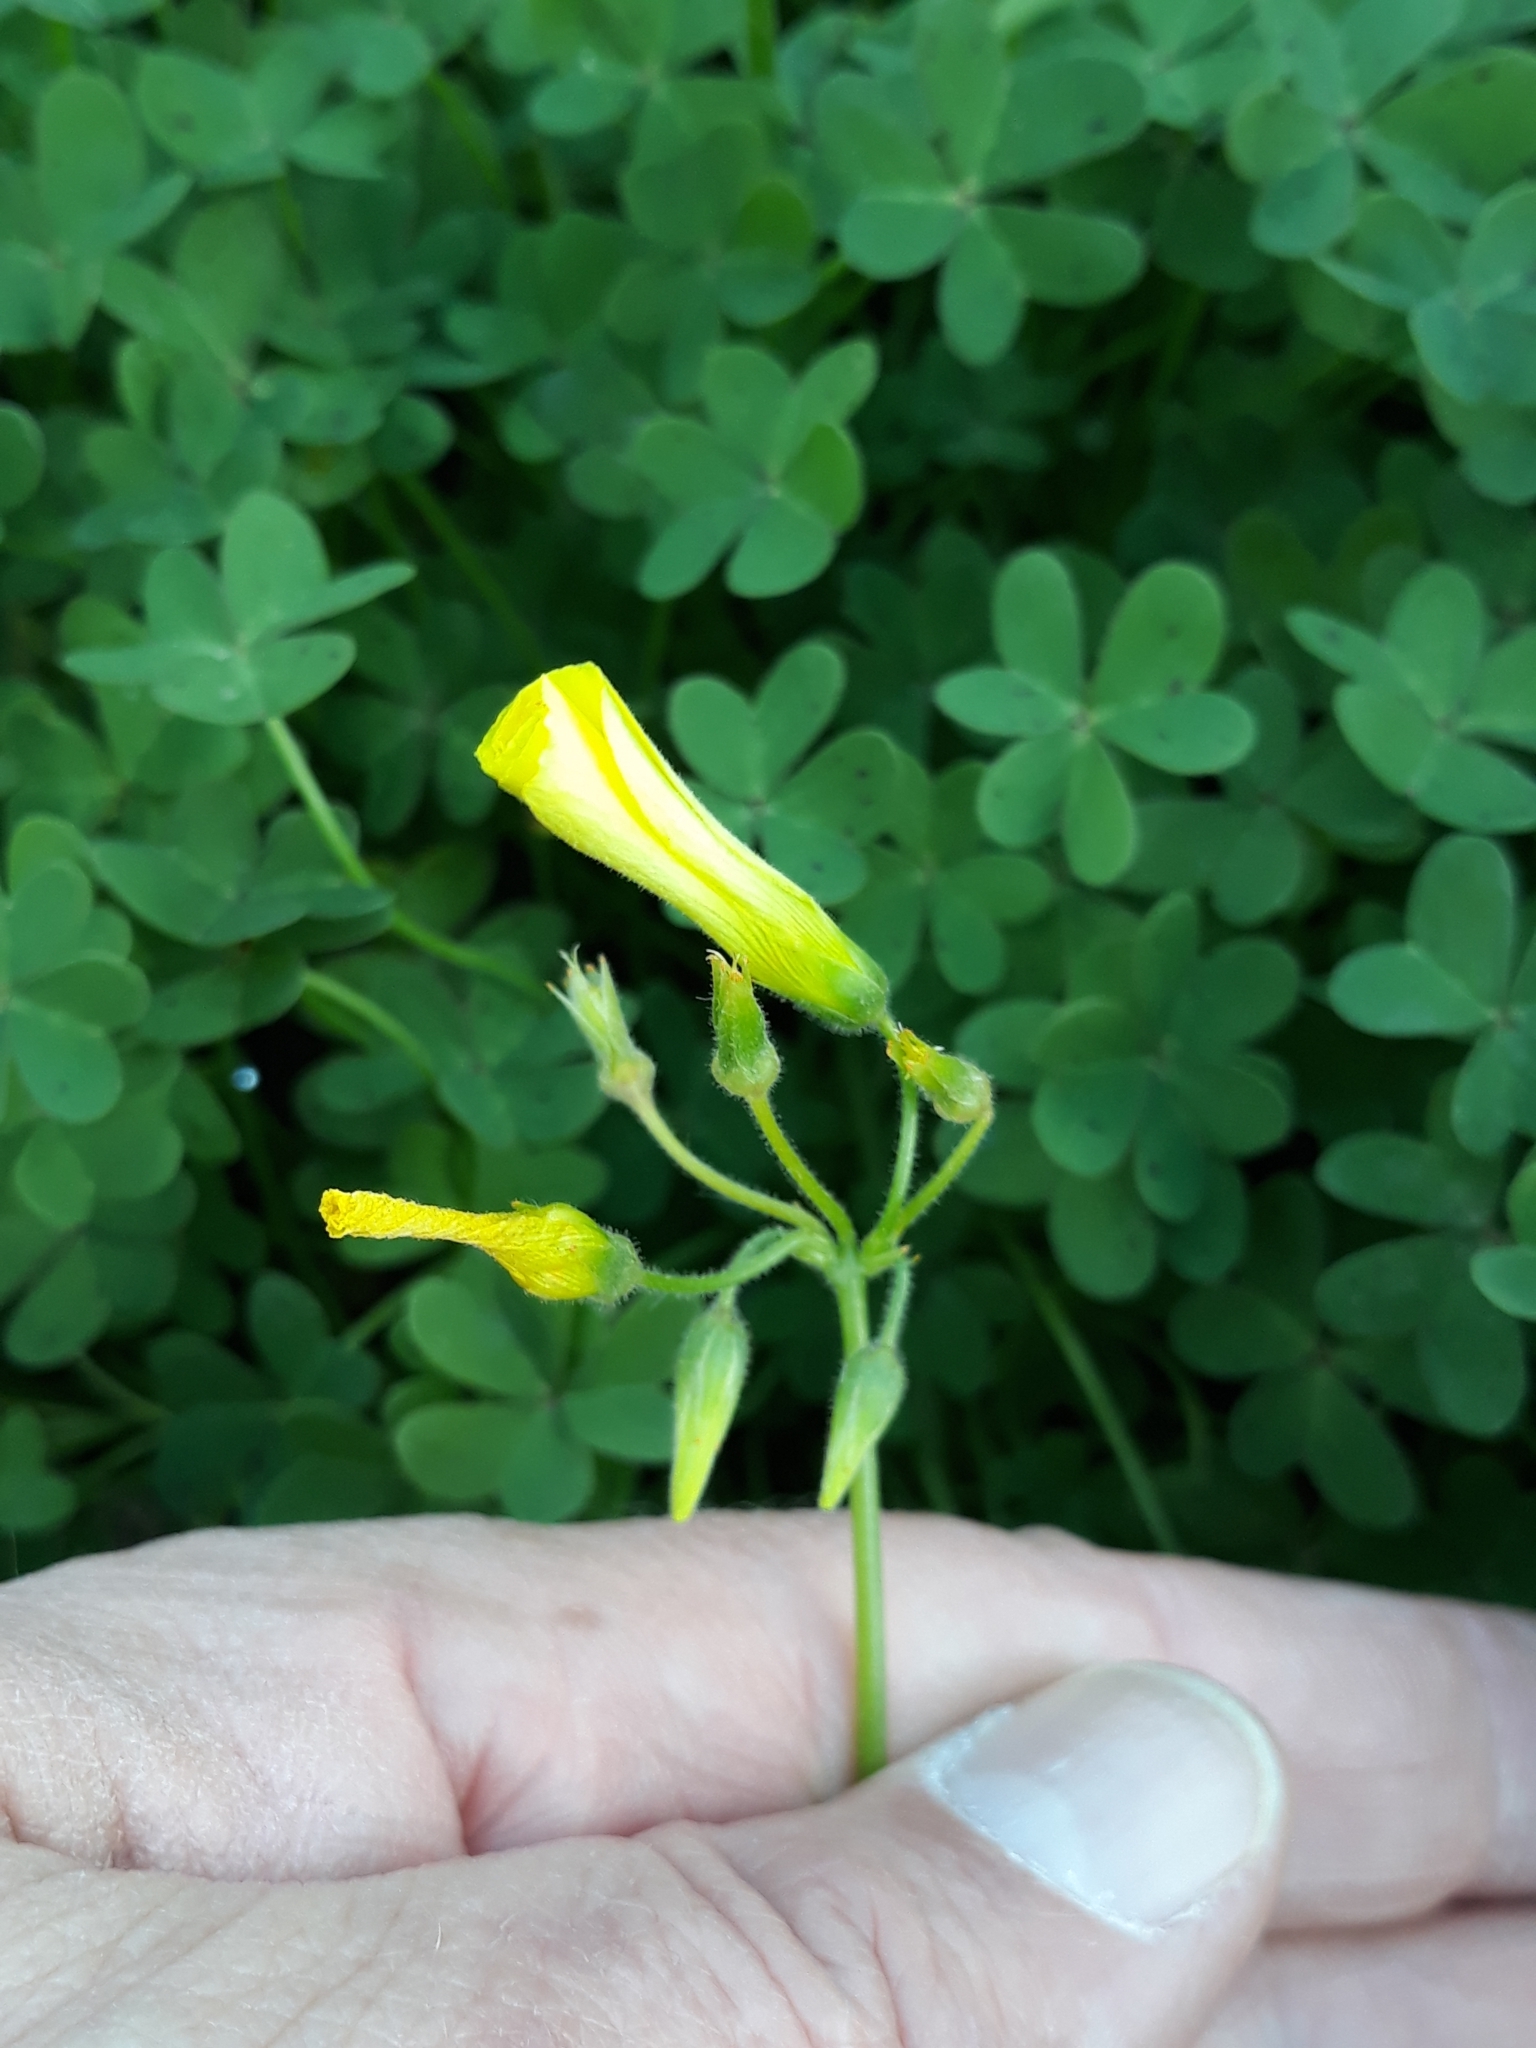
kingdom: Plantae
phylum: Tracheophyta
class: Magnoliopsida
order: Oxalidales
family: Oxalidaceae
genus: Oxalis
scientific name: Oxalis pes-caprae
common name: Bermuda-buttercup
